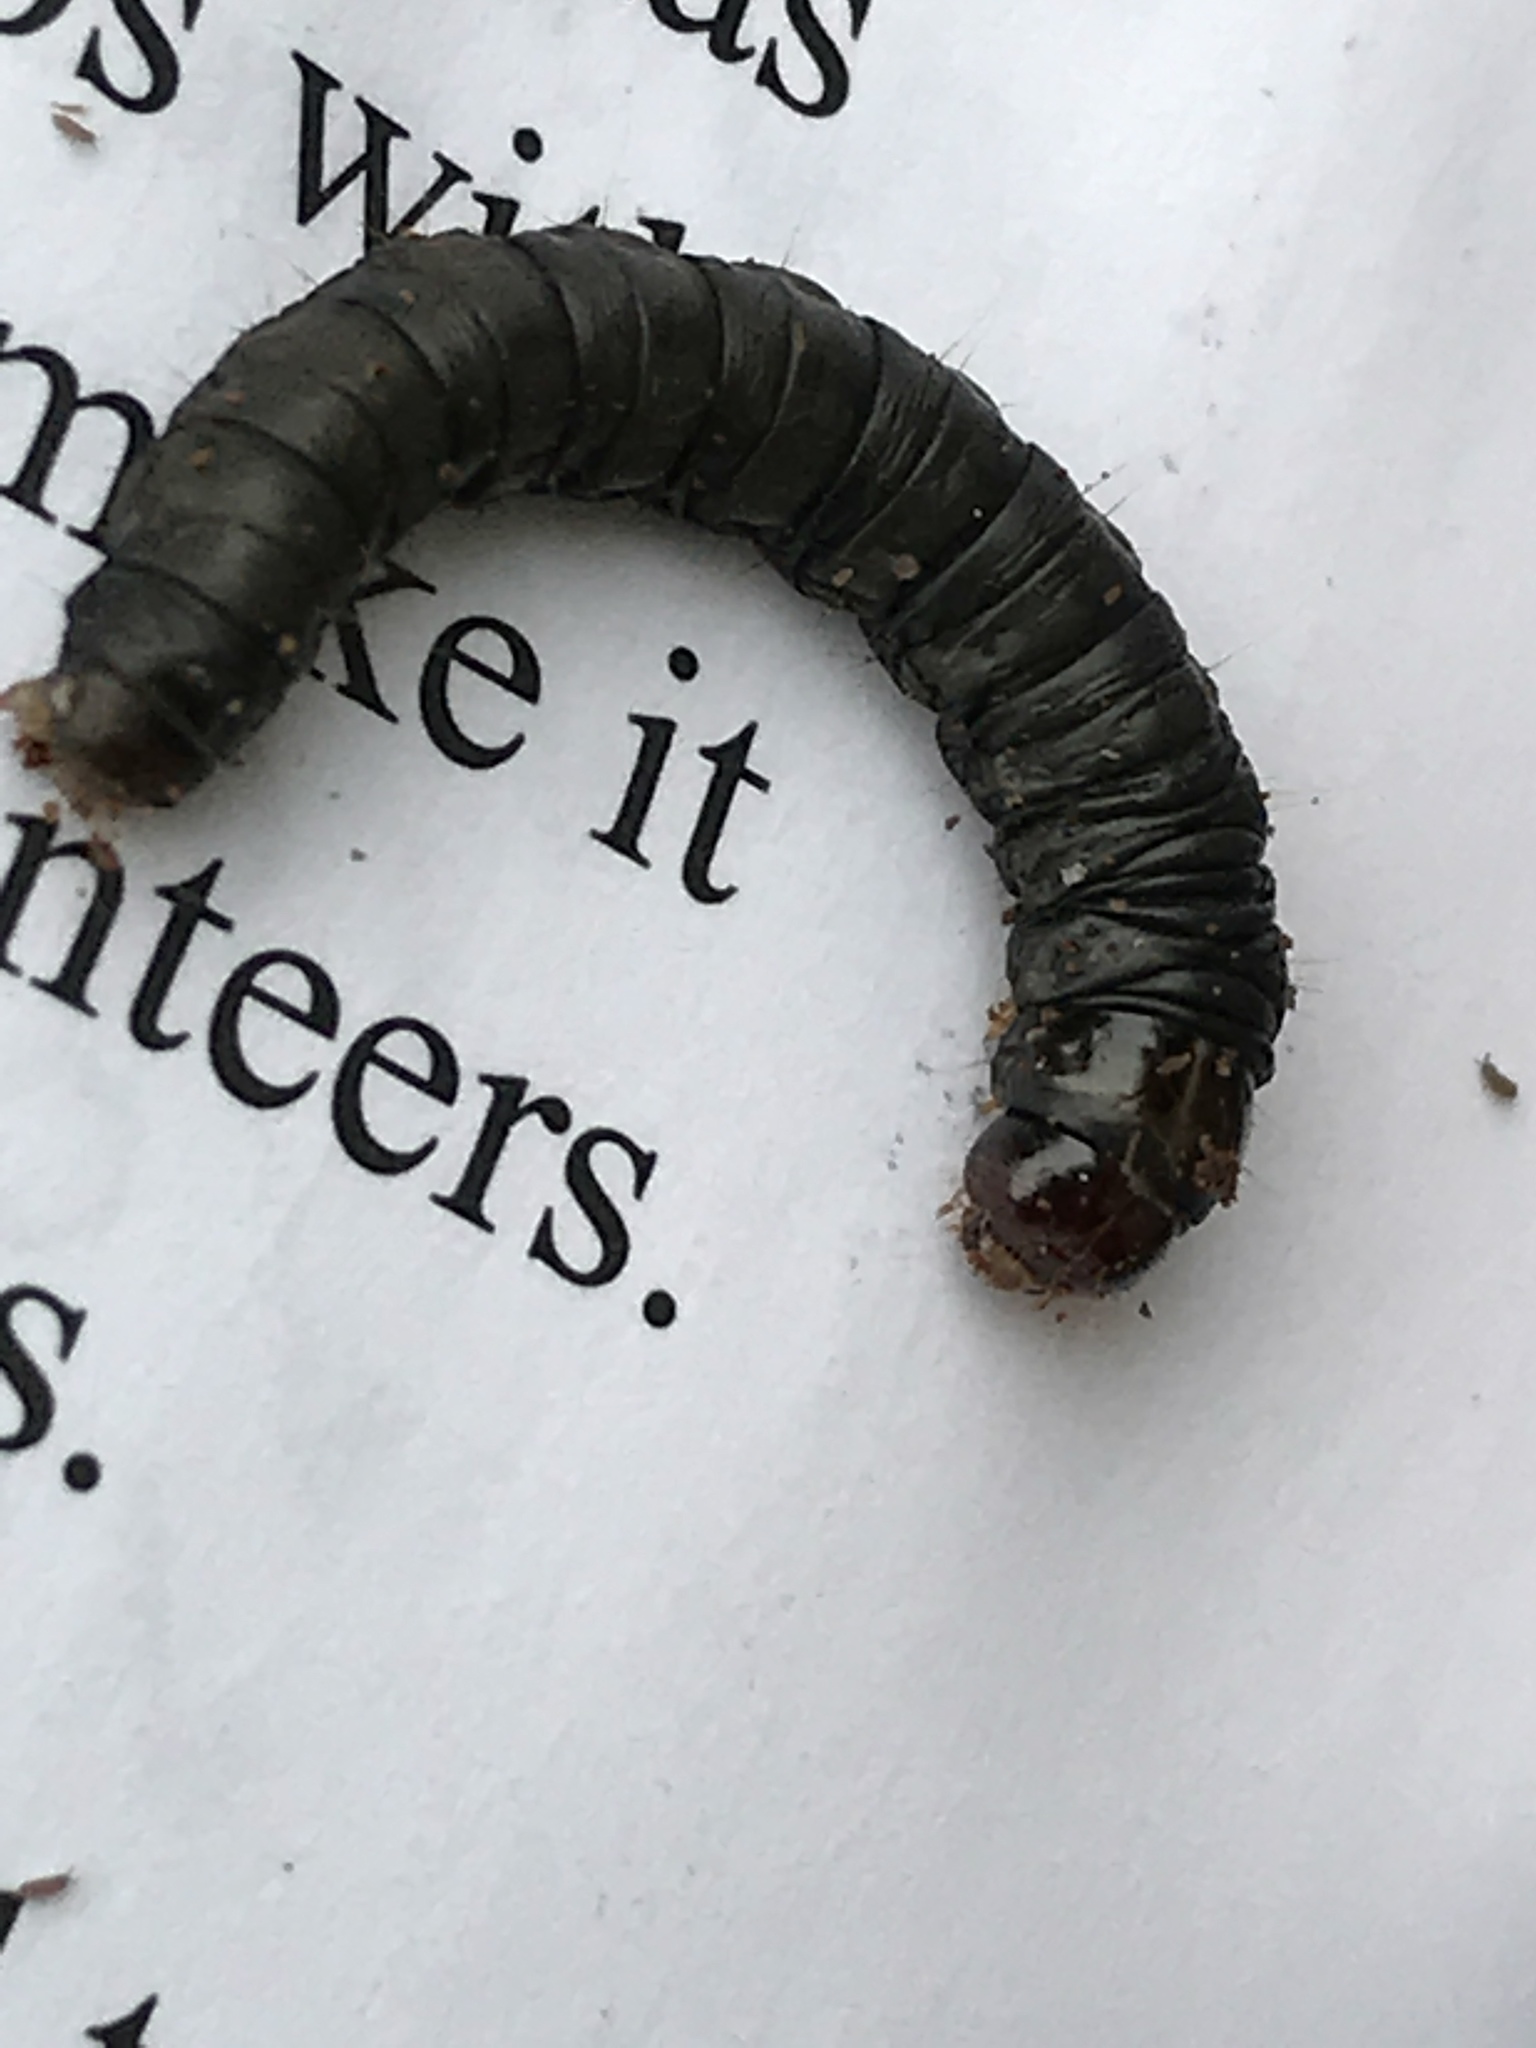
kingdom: Animalia
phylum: Arthropoda
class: Insecta
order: Lepidoptera
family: Pyralidae
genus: Aglossa
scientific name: Aglossa pinguinalis
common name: Large tabby
